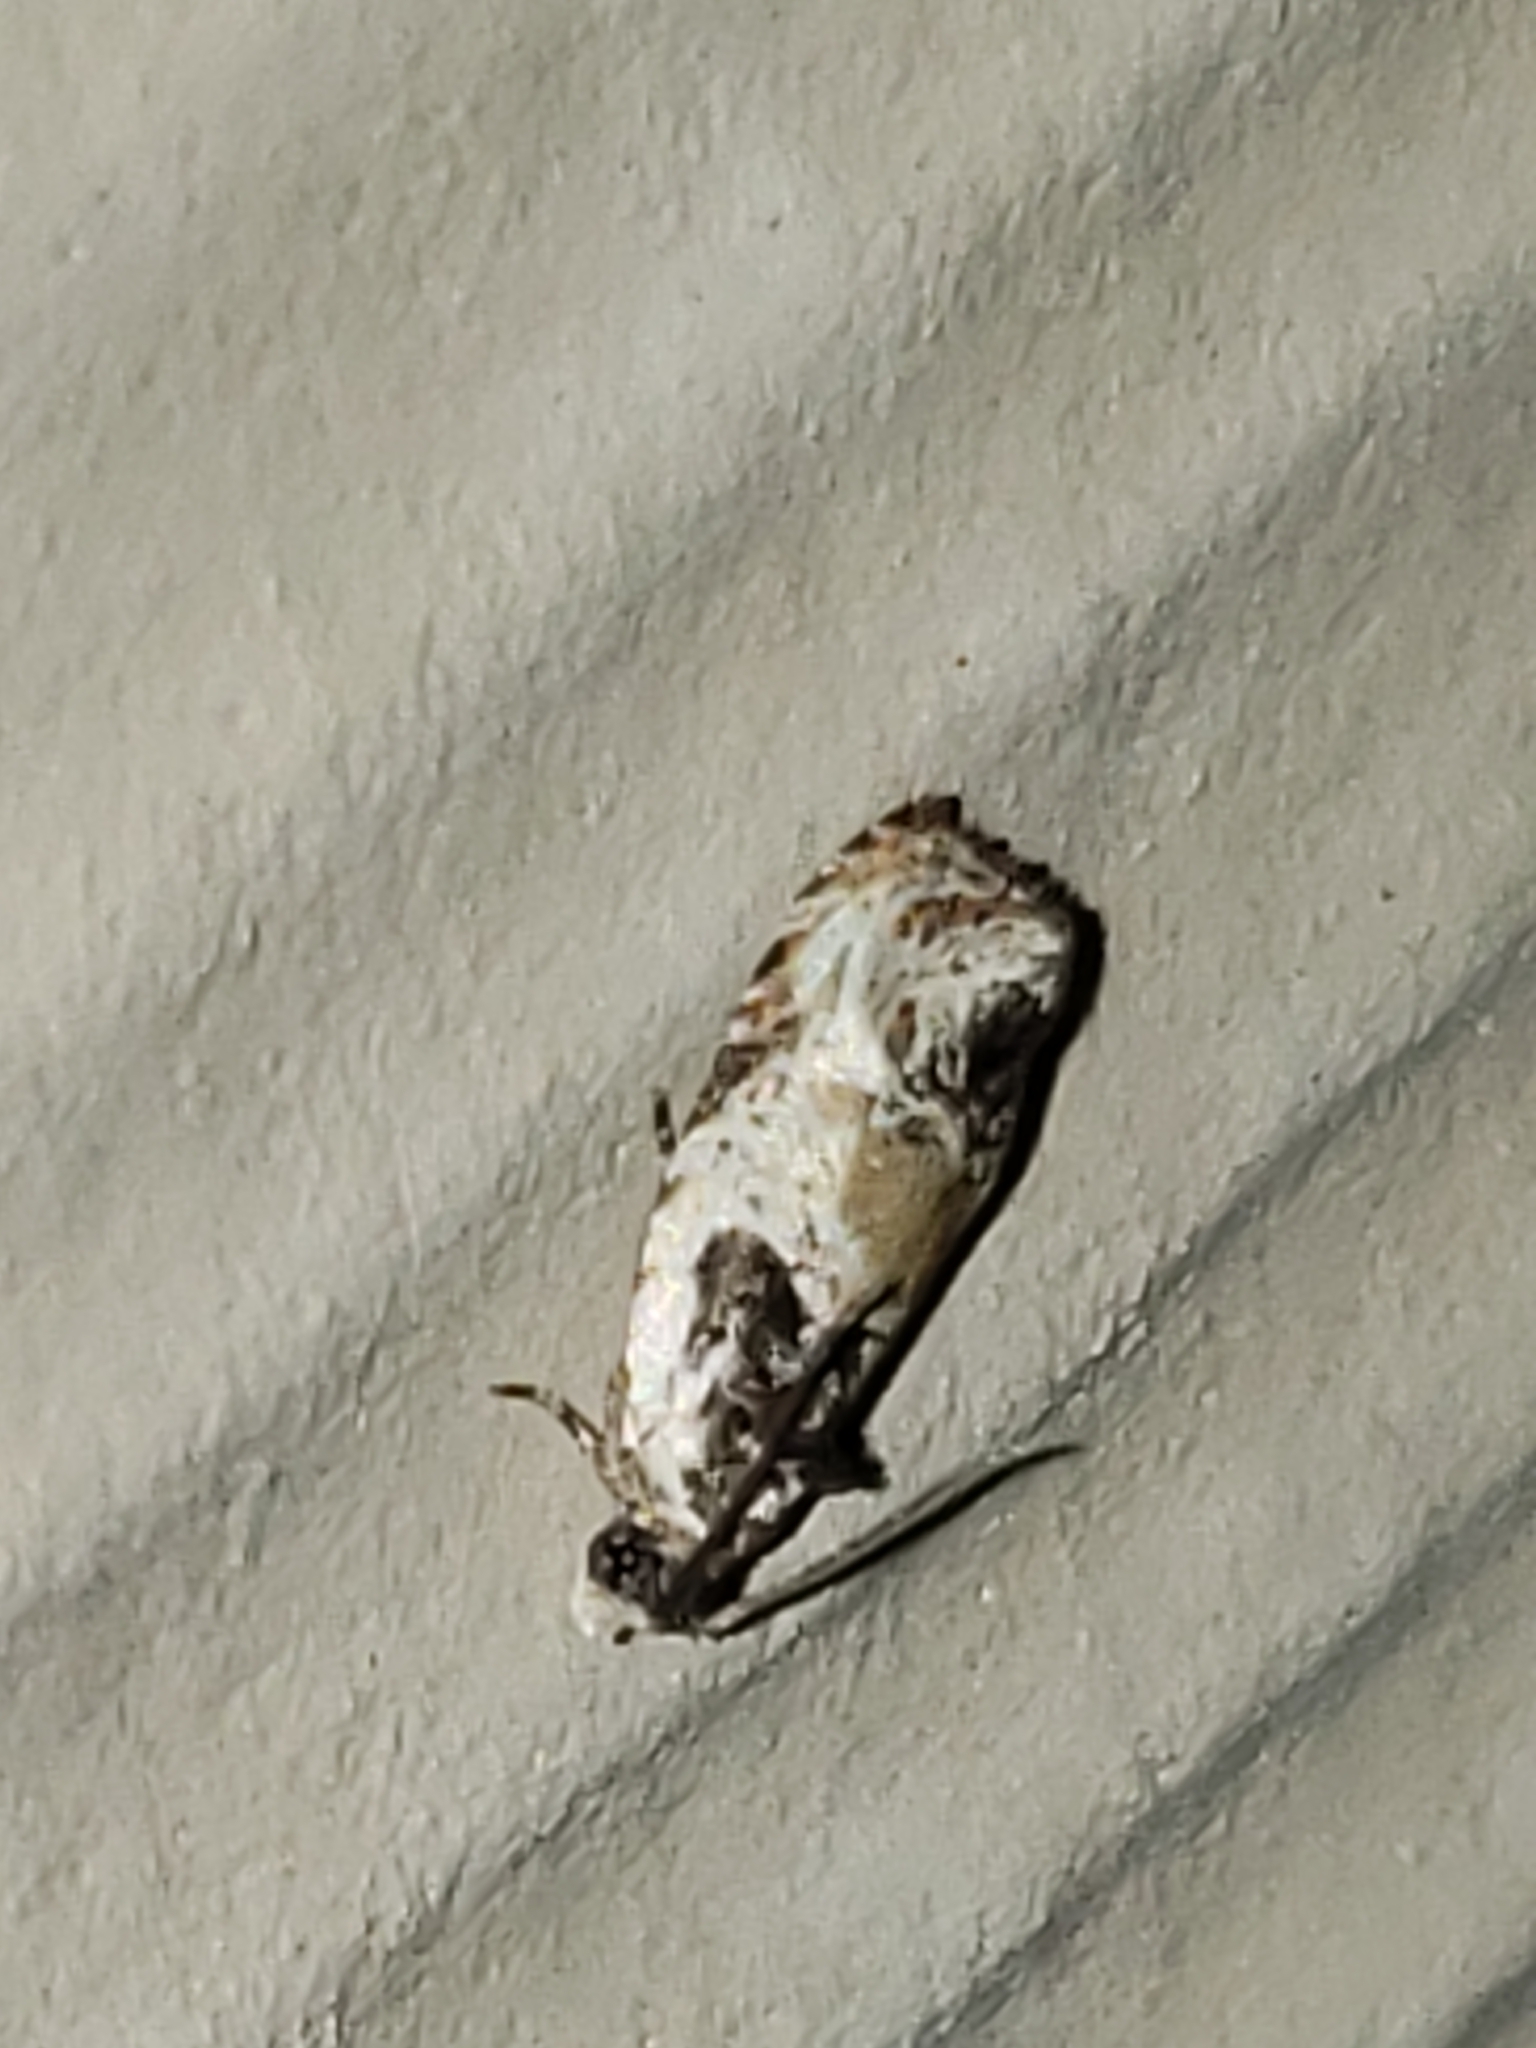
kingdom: Animalia
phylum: Arthropoda
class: Insecta
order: Lepidoptera
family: Tortricidae
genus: Olethreutes
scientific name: Olethreutes griseoalbana
